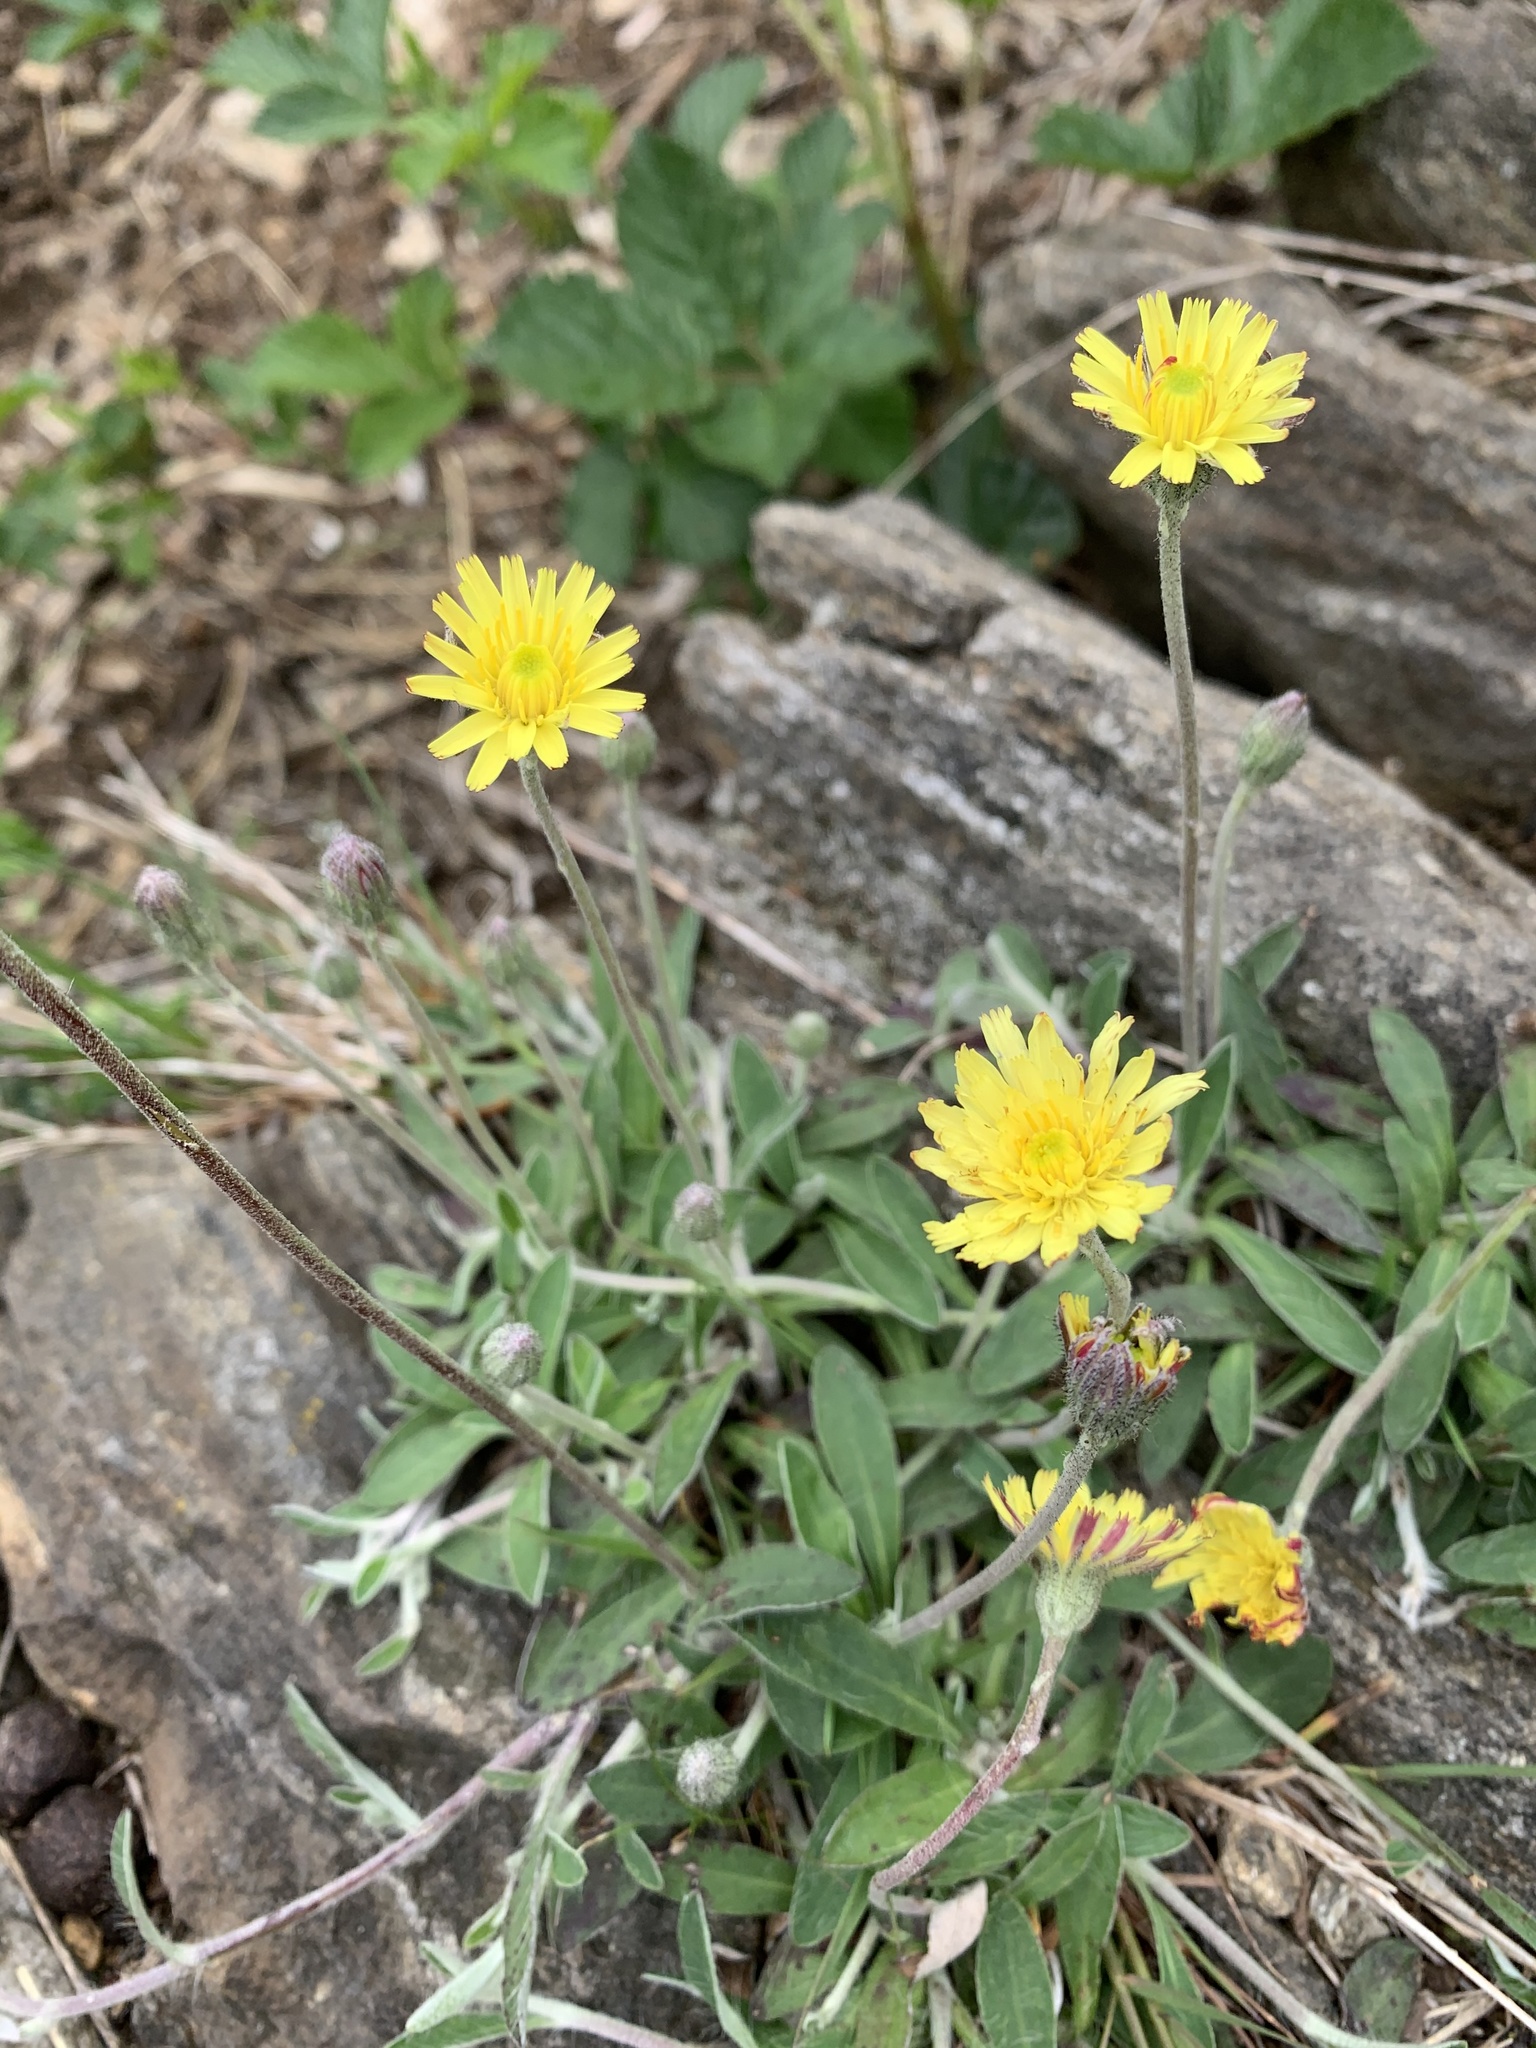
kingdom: Plantae
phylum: Tracheophyta
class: Magnoliopsida
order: Asterales
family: Asteraceae
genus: Pilosella
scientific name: Pilosella officinarum
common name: Mouse-ear hawkweed
